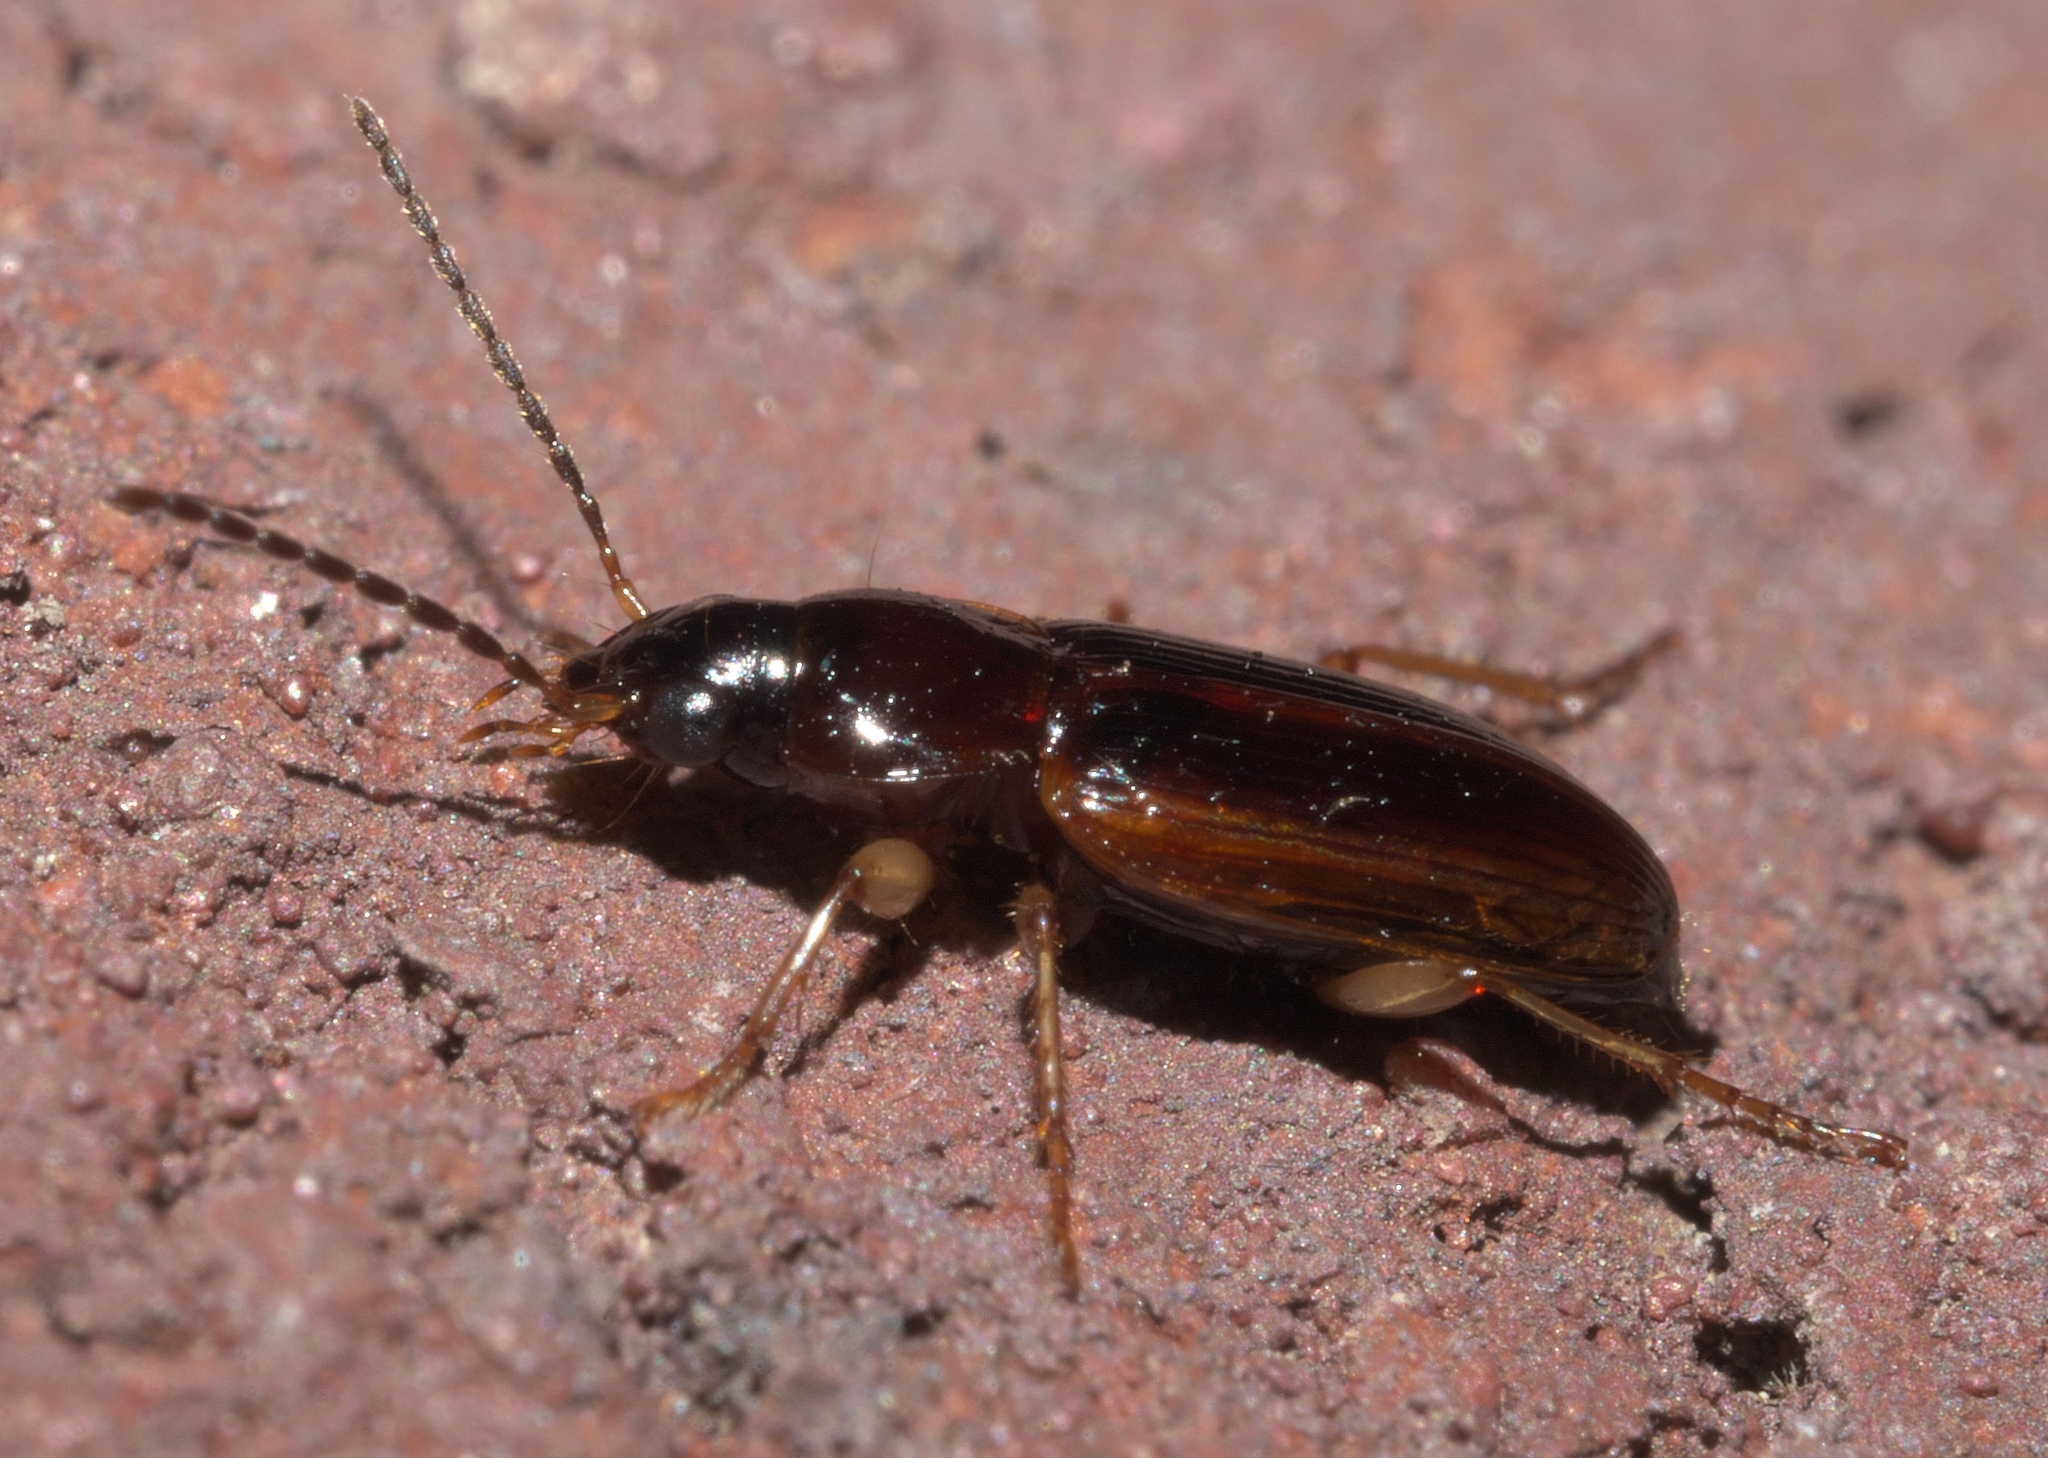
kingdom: Animalia
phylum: Arthropoda
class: Insecta
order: Coleoptera
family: Carabidae
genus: Stenolophus
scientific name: Stenolophus ochropezus
